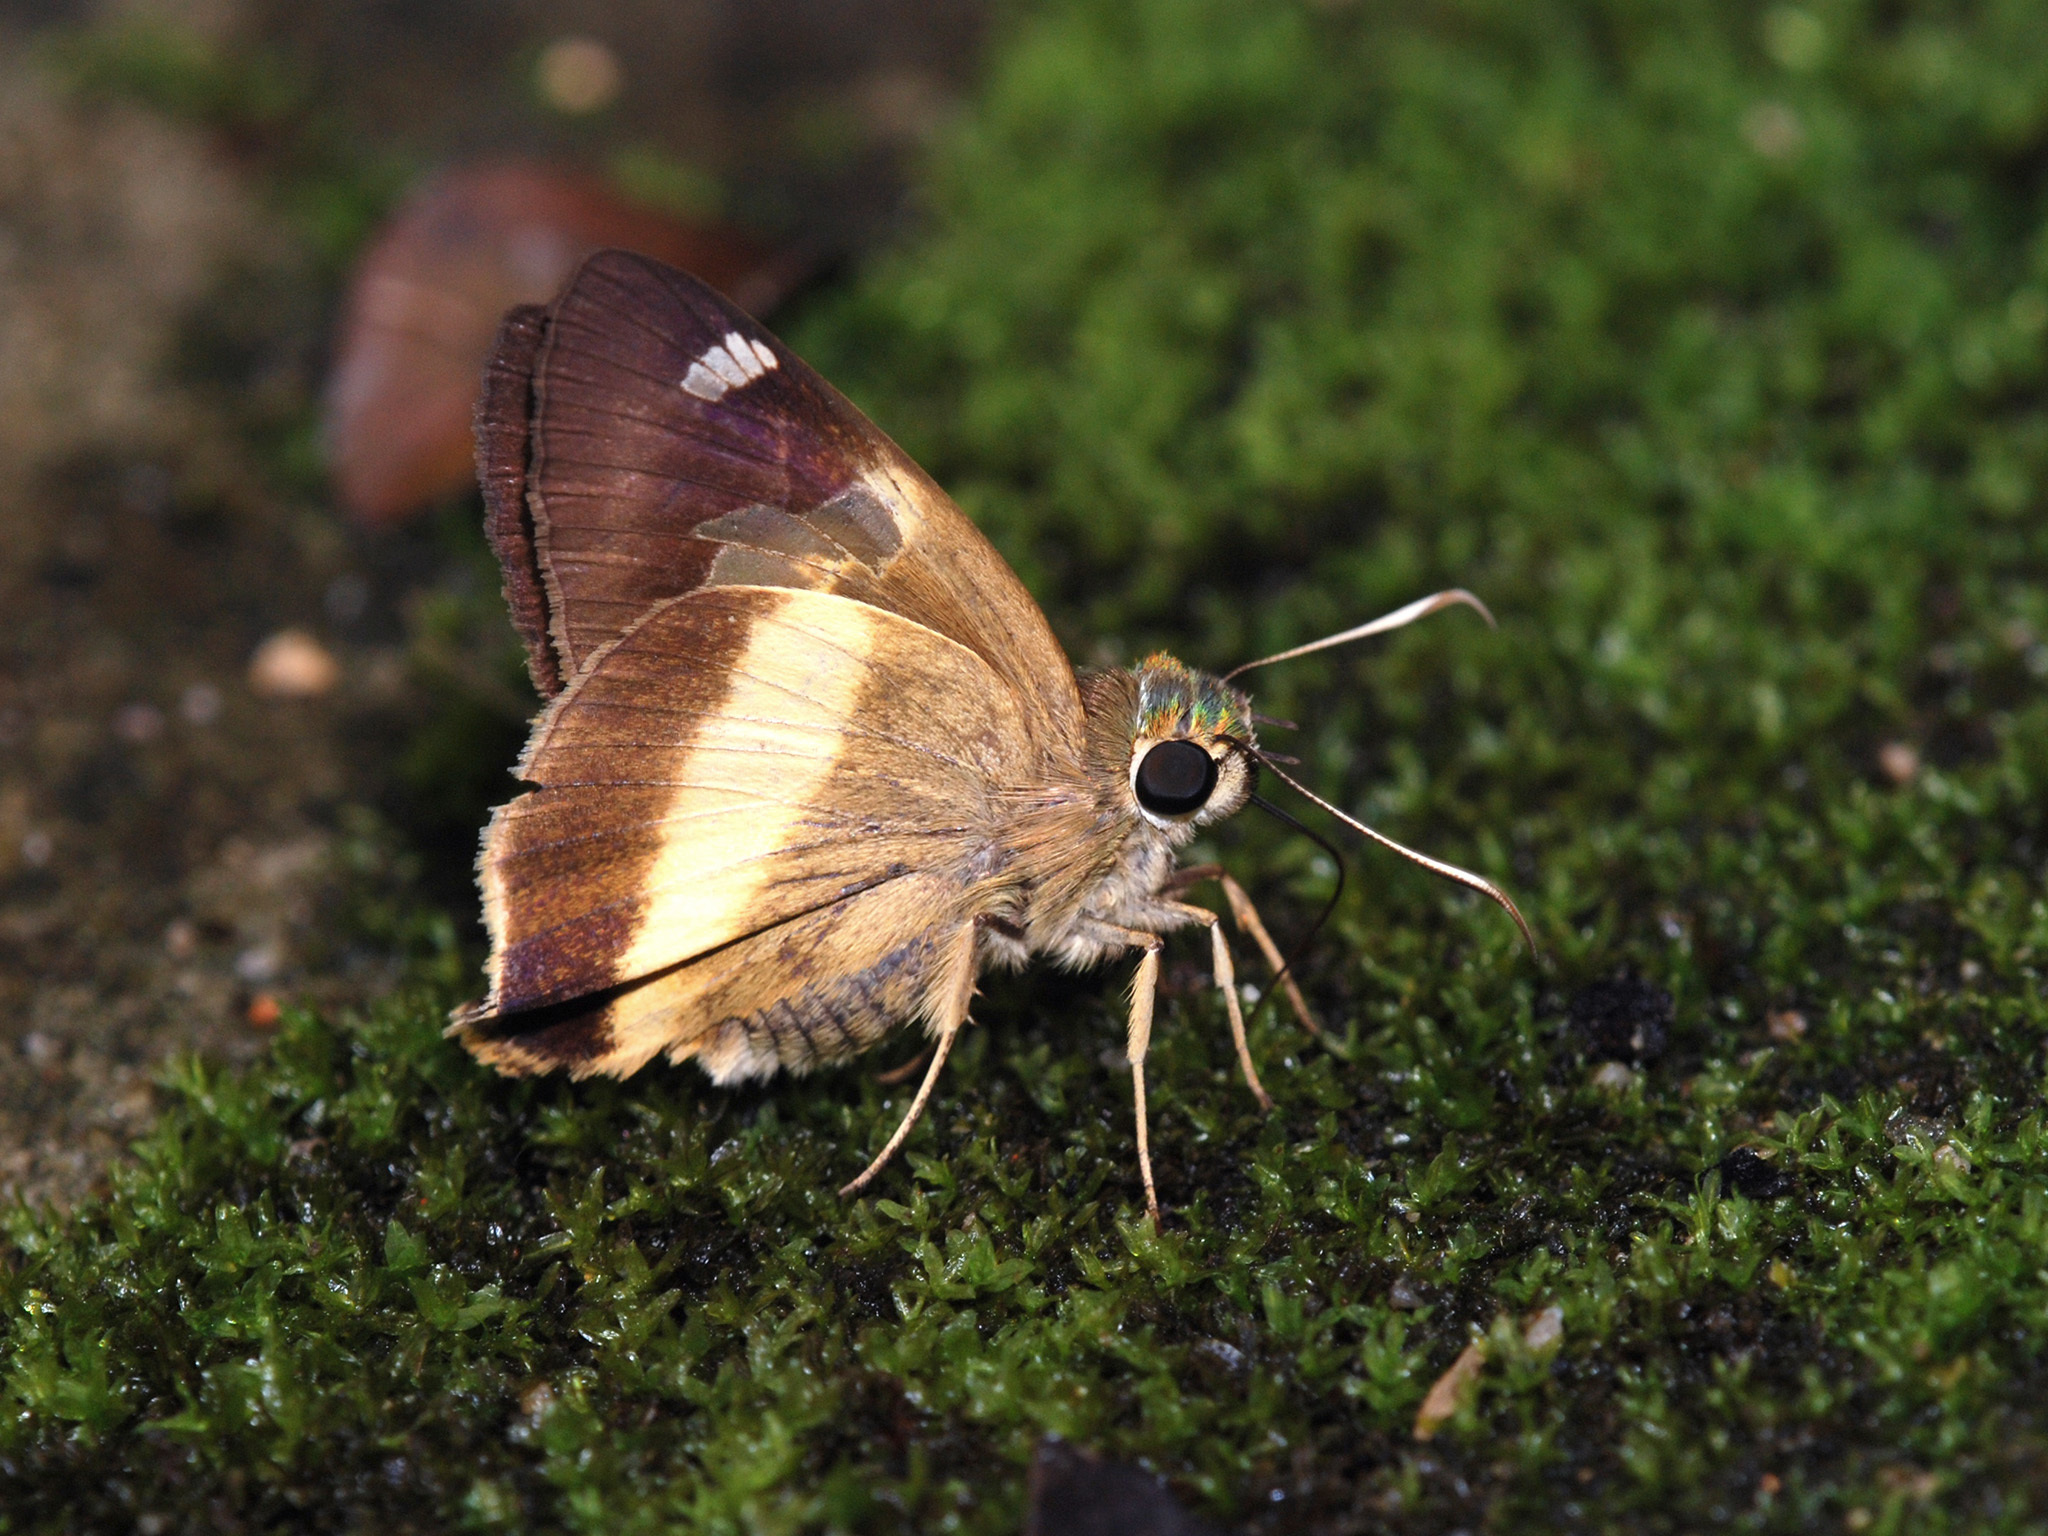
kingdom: Animalia
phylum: Arthropoda
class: Insecta
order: Lepidoptera
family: Hesperiidae
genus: Hasora
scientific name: Hasora schoenherr
